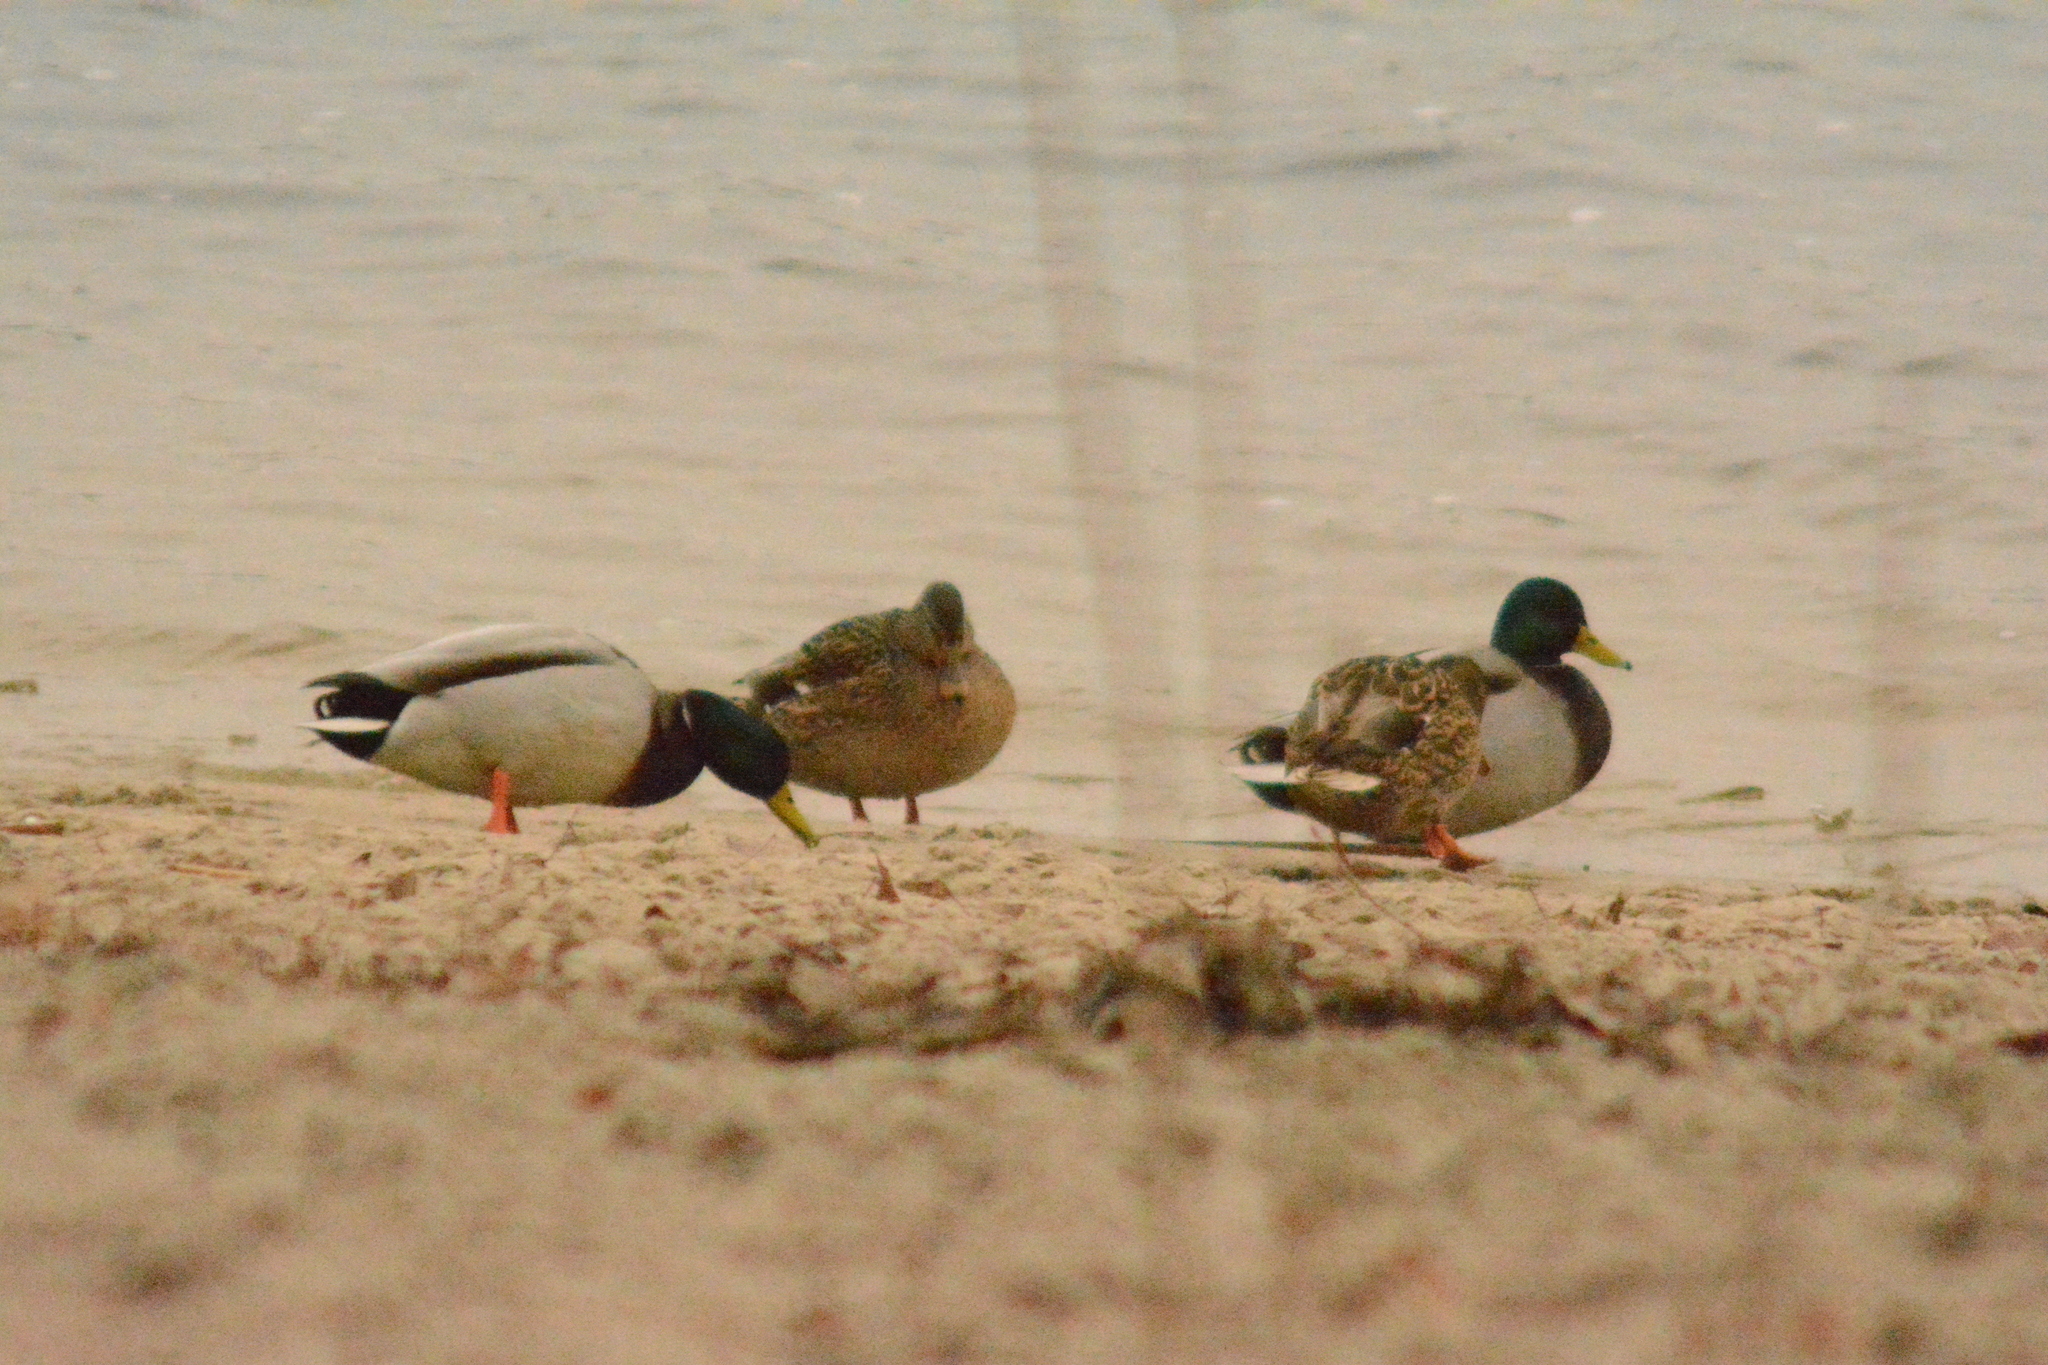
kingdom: Animalia
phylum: Chordata
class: Aves
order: Anseriformes
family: Anatidae
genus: Anas
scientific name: Anas platyrhynchos
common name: Mallard
